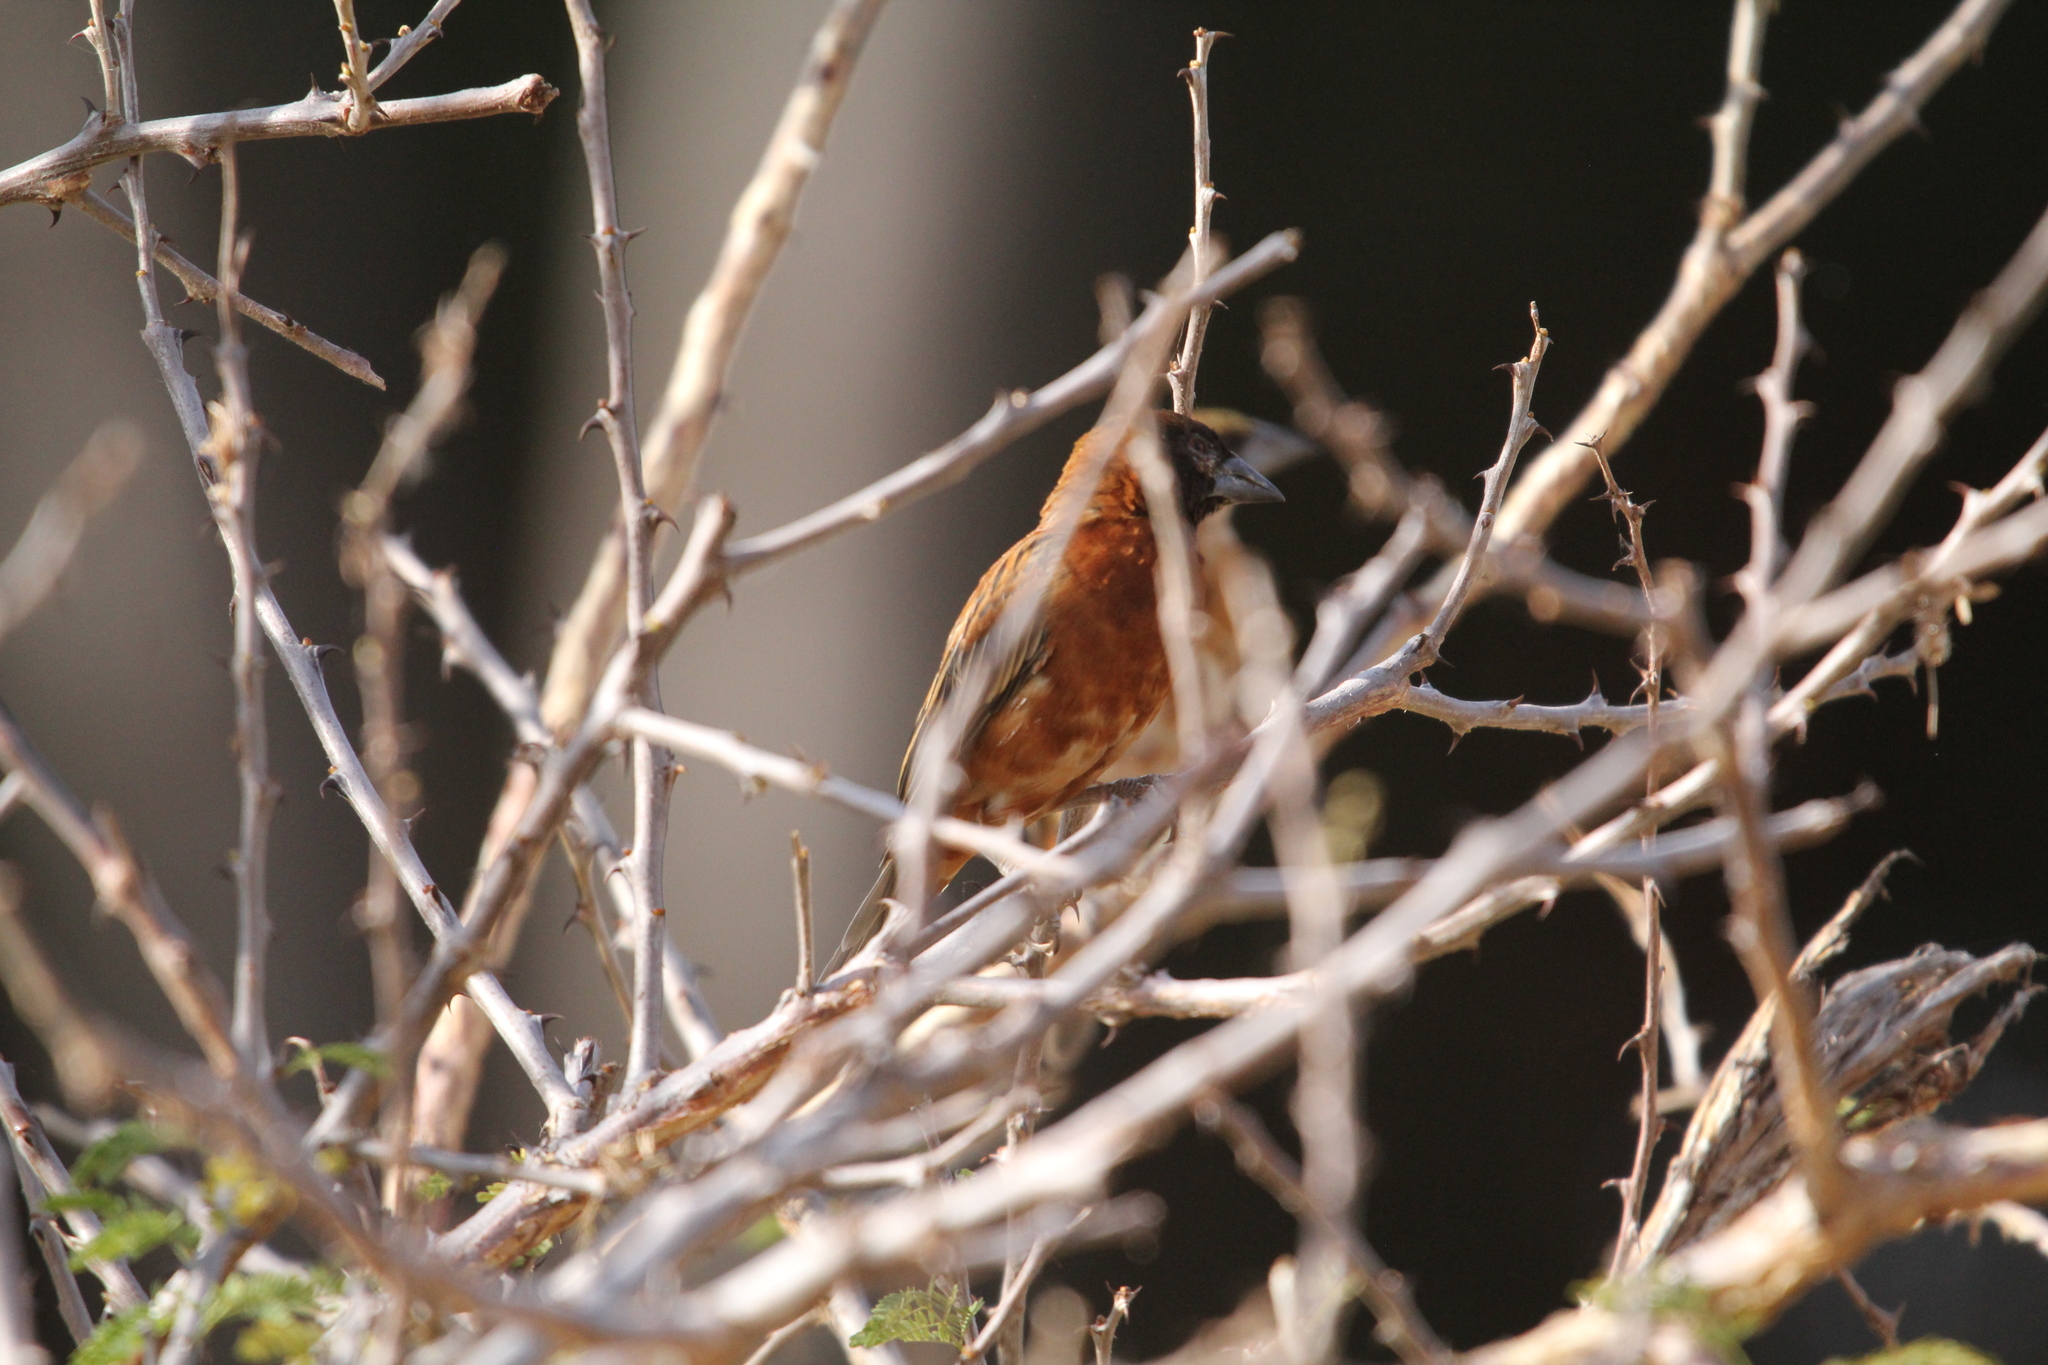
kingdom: Animalia
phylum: Chordata
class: Aves
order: Passeriformes
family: Ploceidae
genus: Ploceus
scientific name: Ploceus rubiginosus
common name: Chestnut weaver
